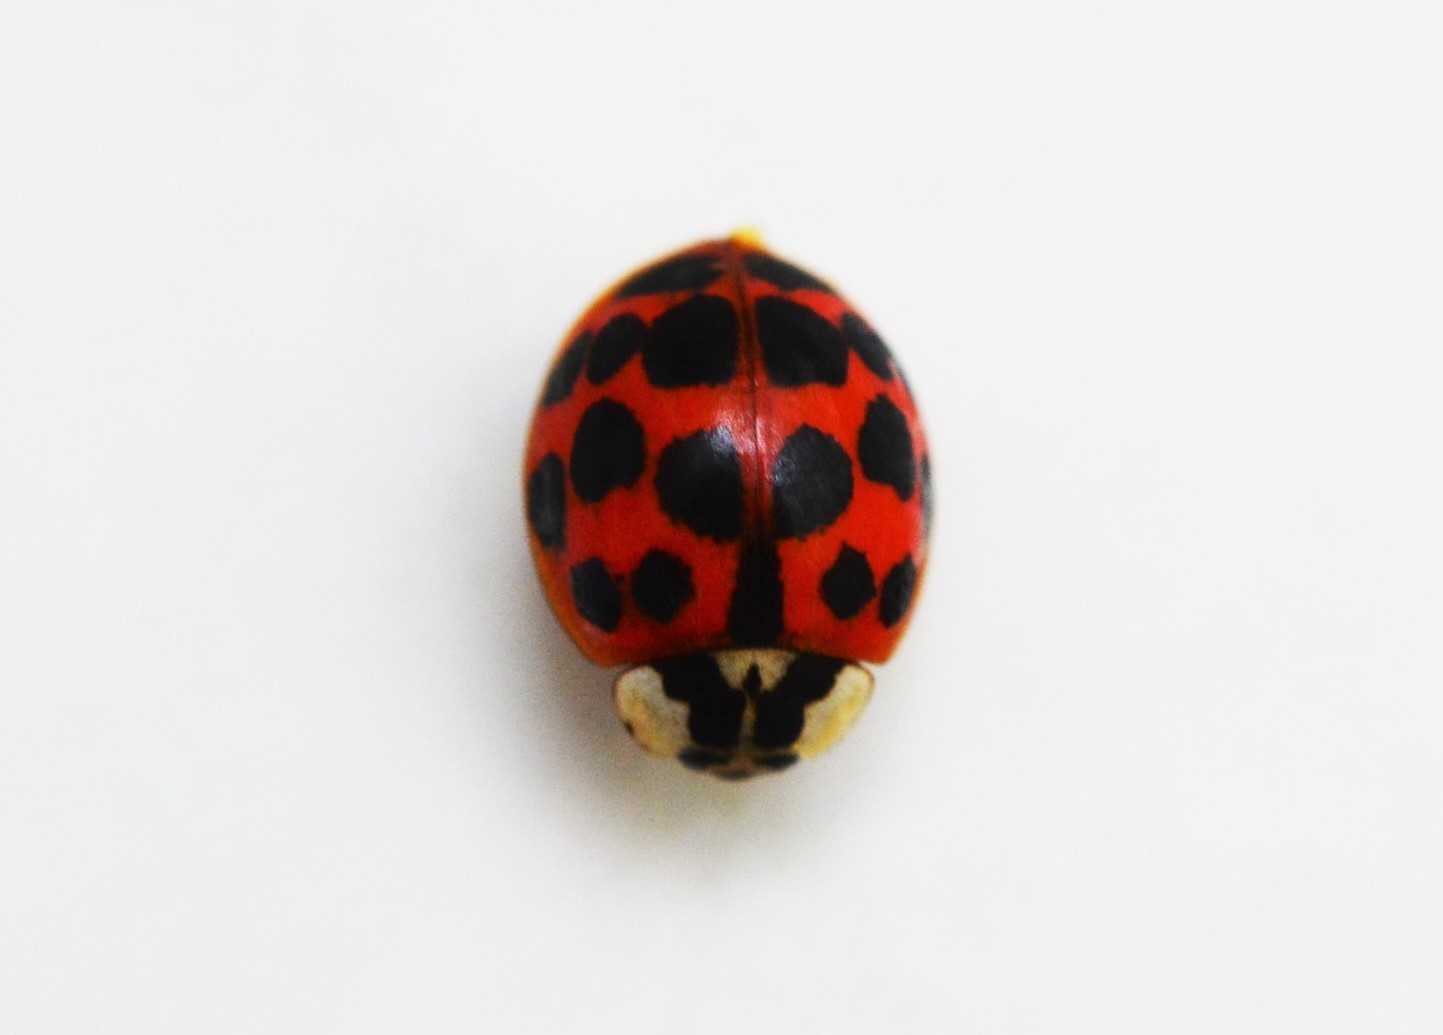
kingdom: Animalia
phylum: Arthropoda
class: Insecta
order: Coleoptera
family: Coccinellidae
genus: Harmonia
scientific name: Harmonia axyridis
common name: Harlequin ladybird
